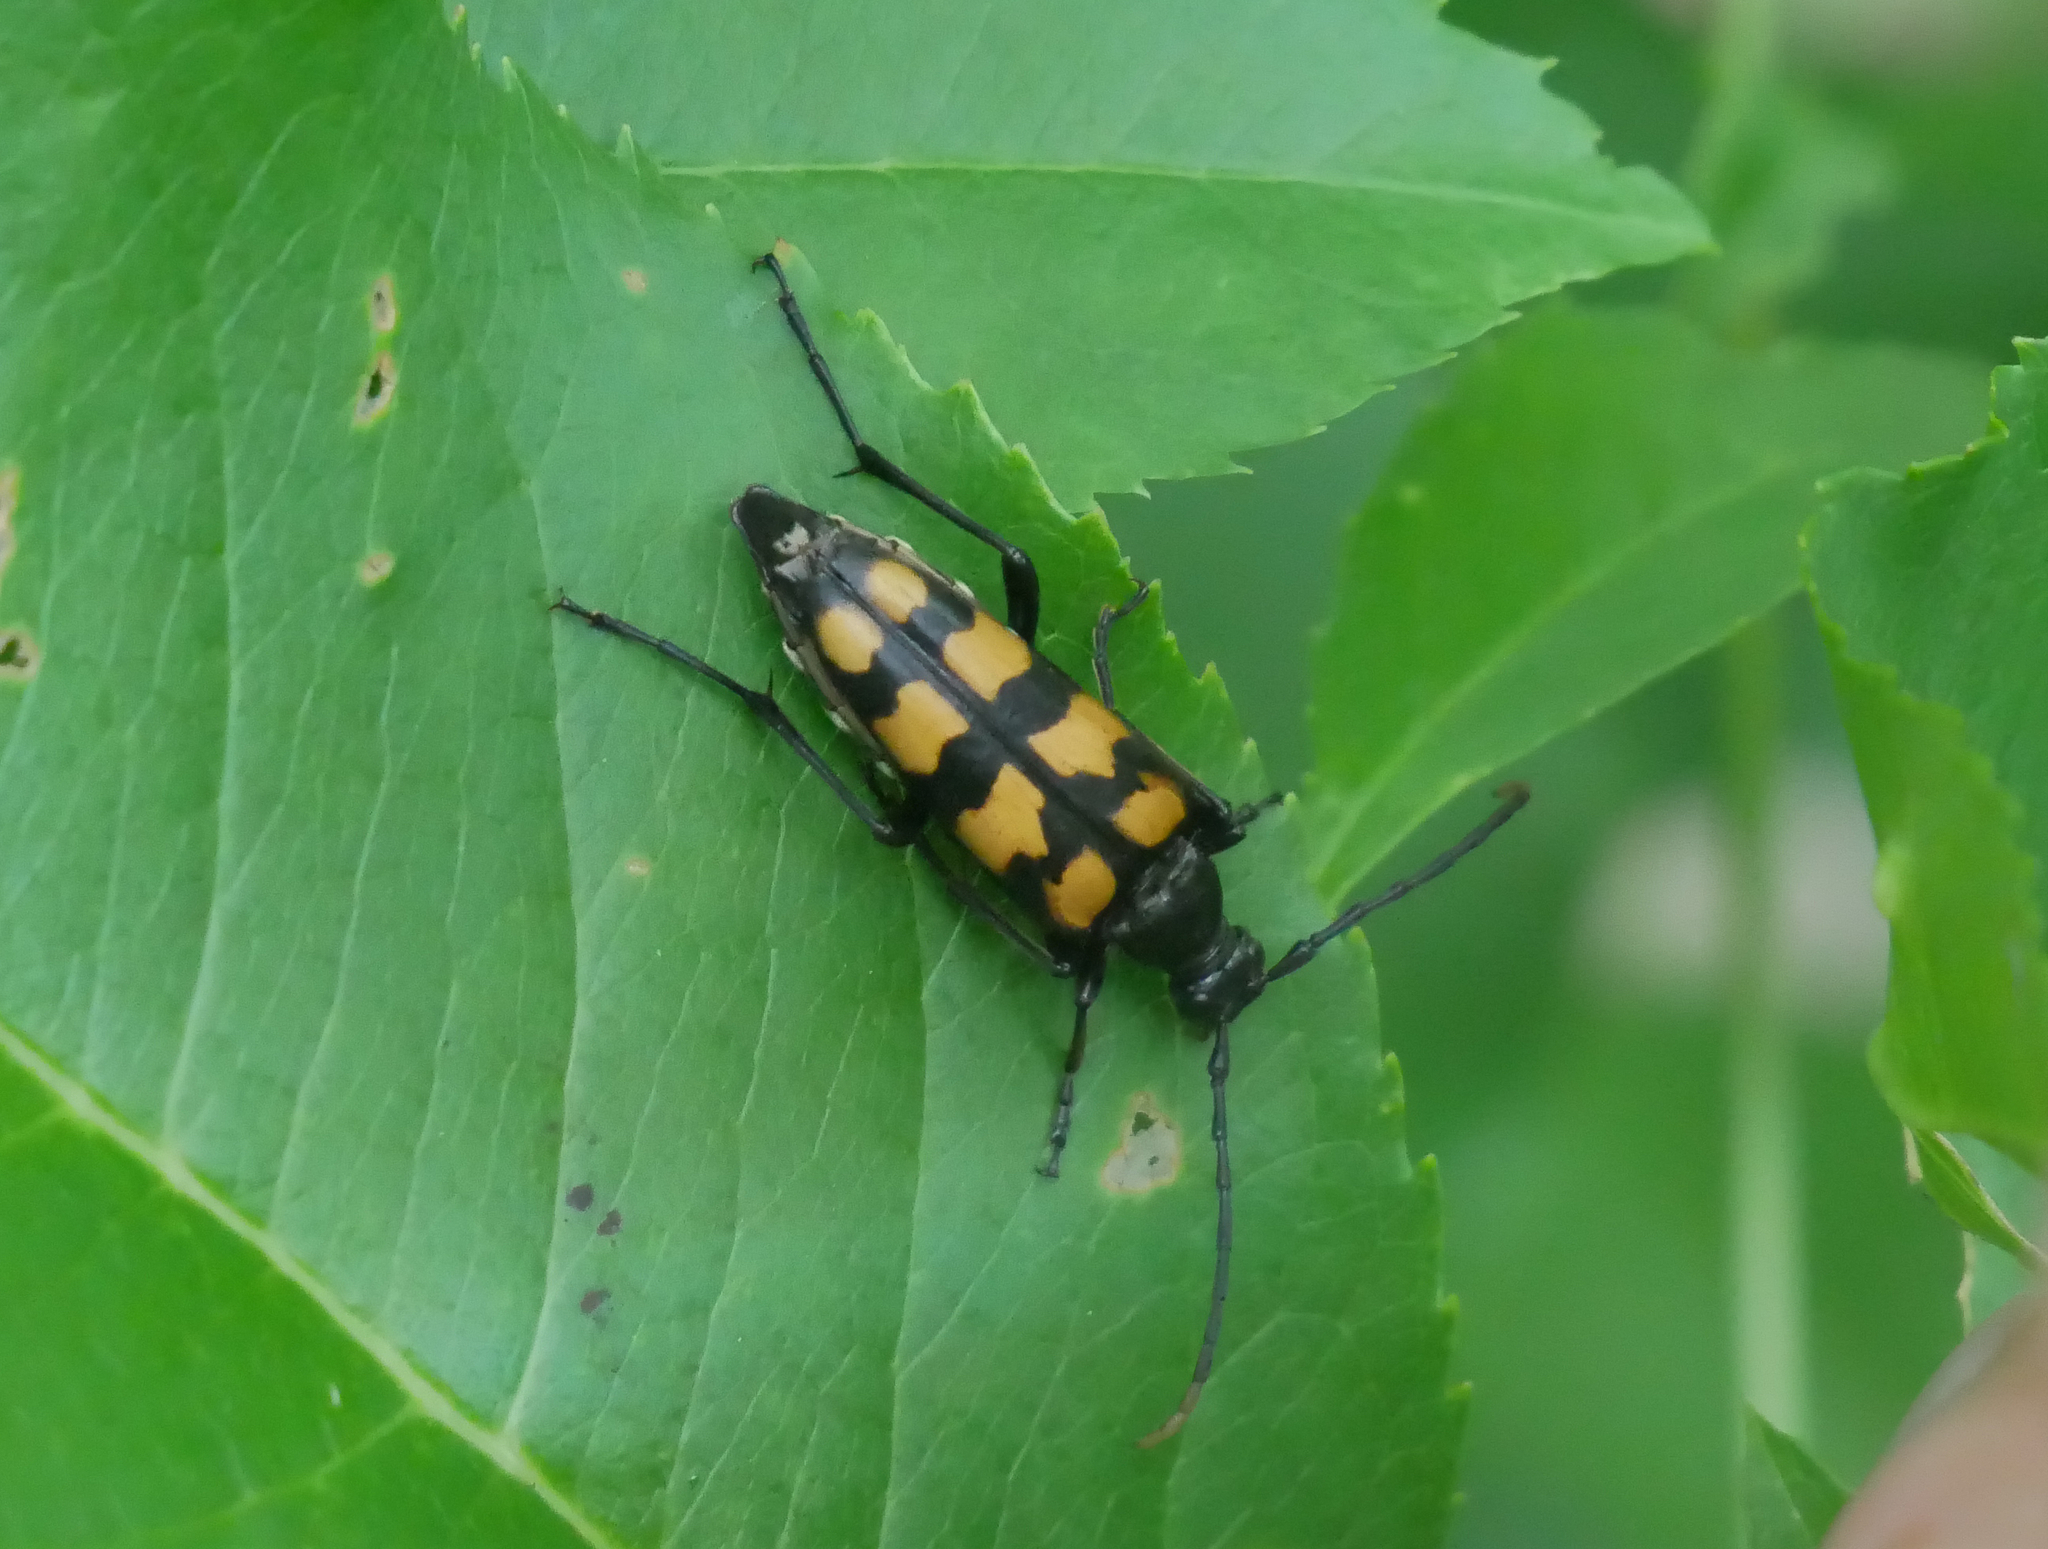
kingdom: Animalia
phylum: Arthropoda
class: Insecta
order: Coleoptera
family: Cerambycidae
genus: Leptura
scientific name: Leptura quadrifasciata
